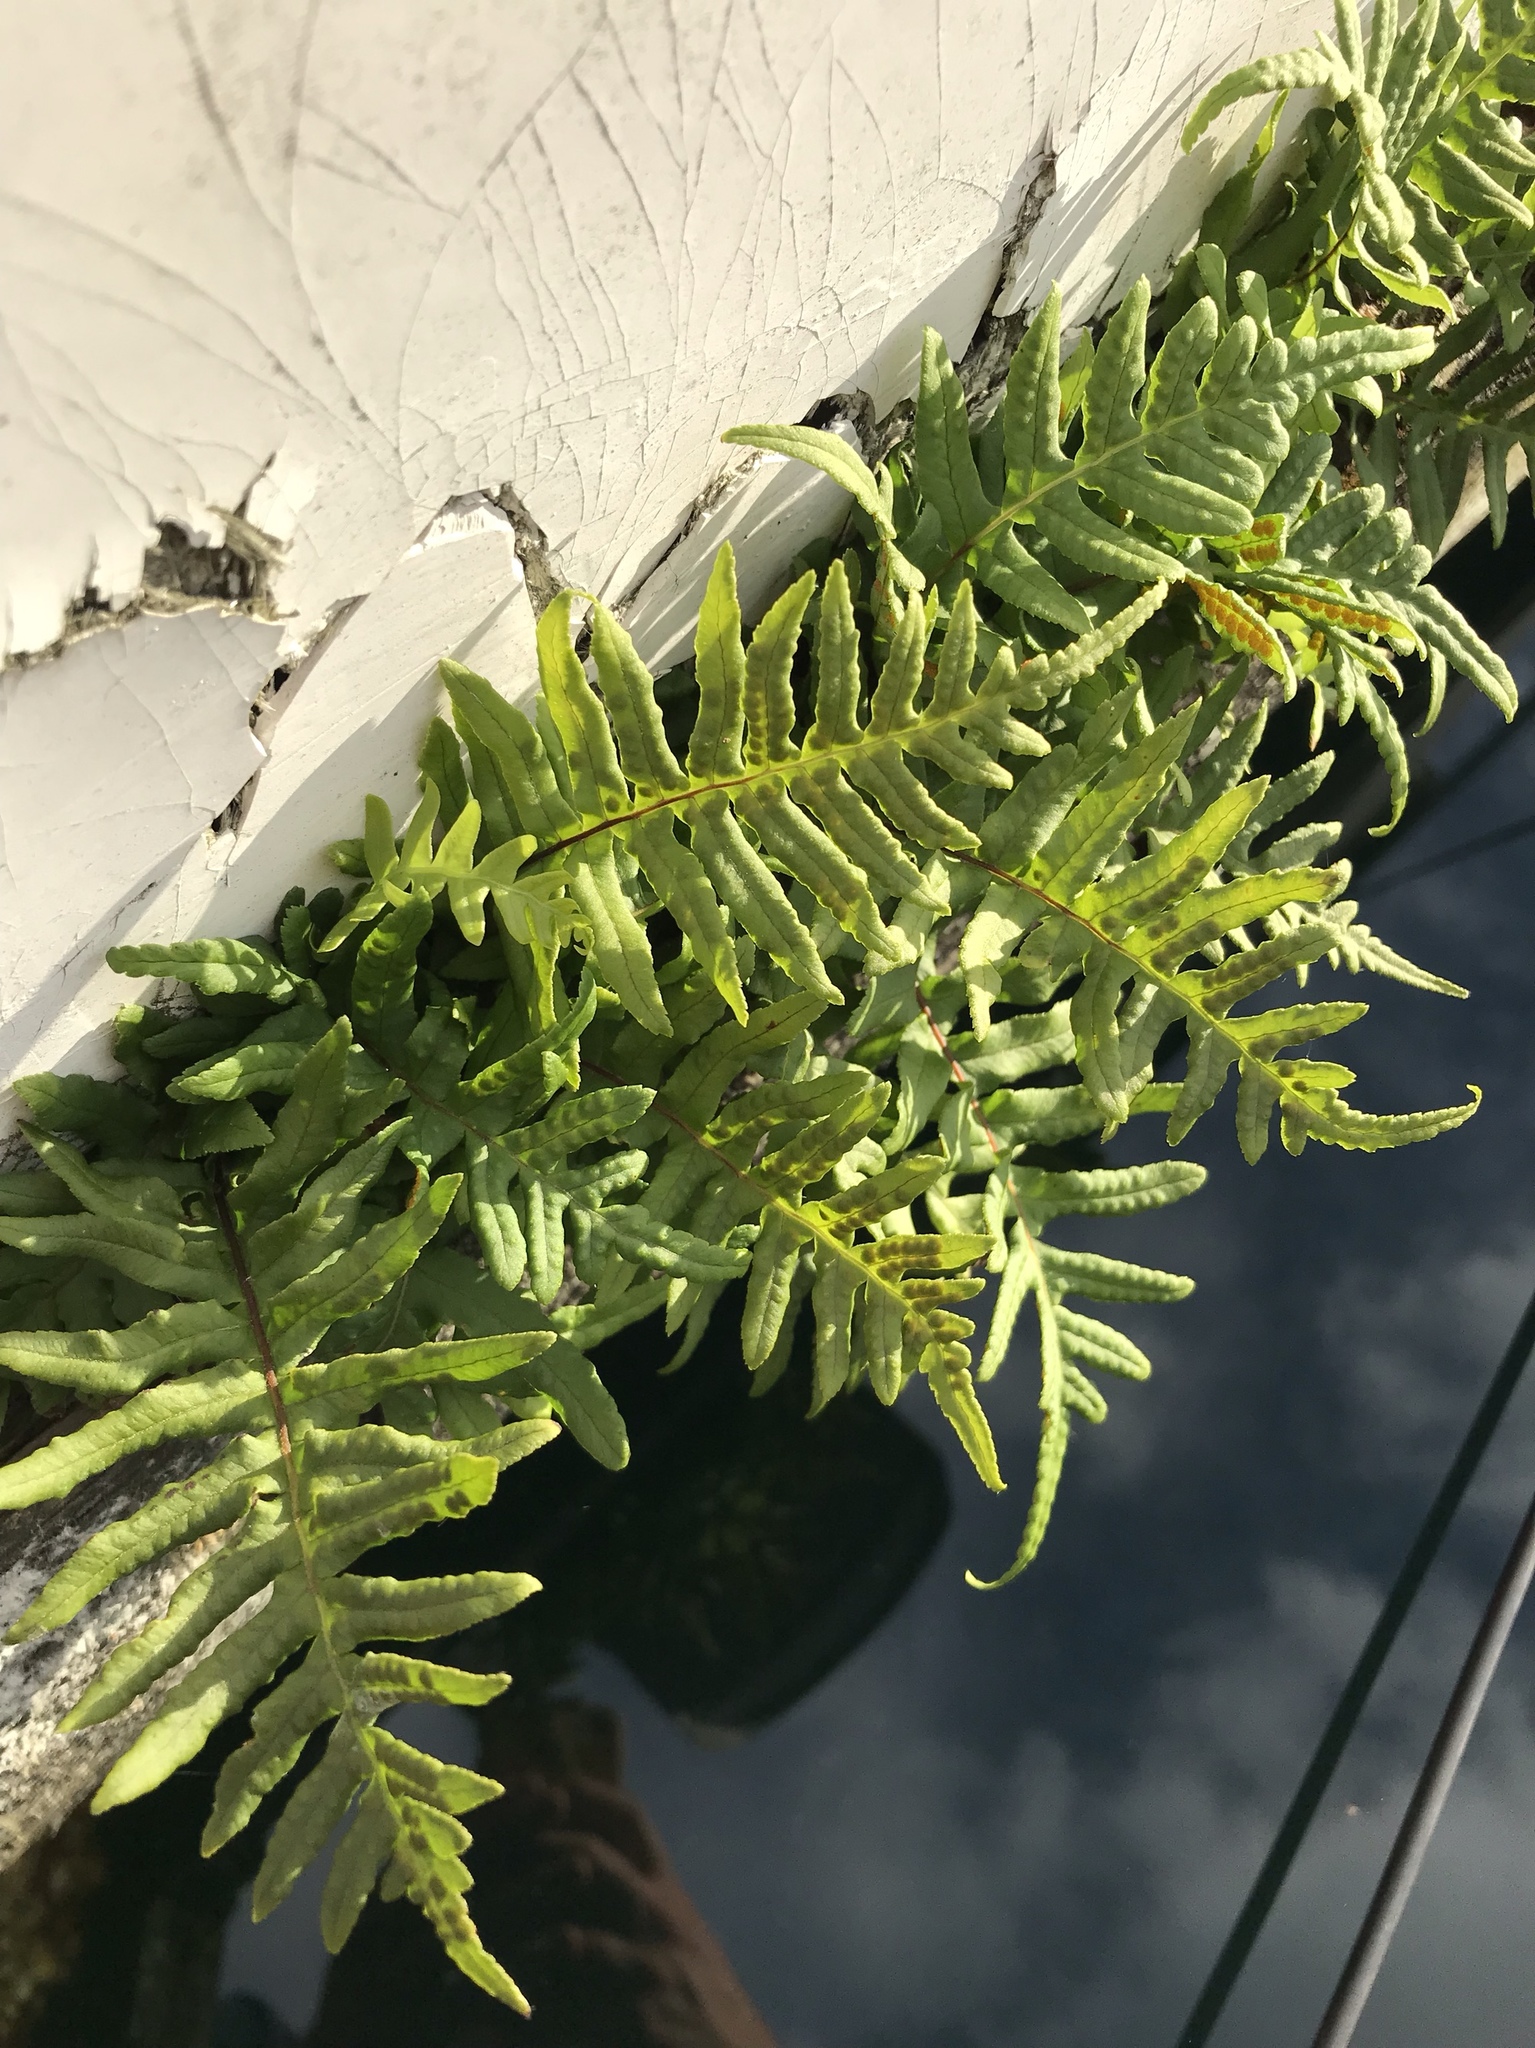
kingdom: Plantae
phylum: Tracheophyta
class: Polypodiopsida
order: Polypodiales
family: Polypodiaceae
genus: Polypodium
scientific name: Polypodium glycyrrhiza
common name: Licorice fern
